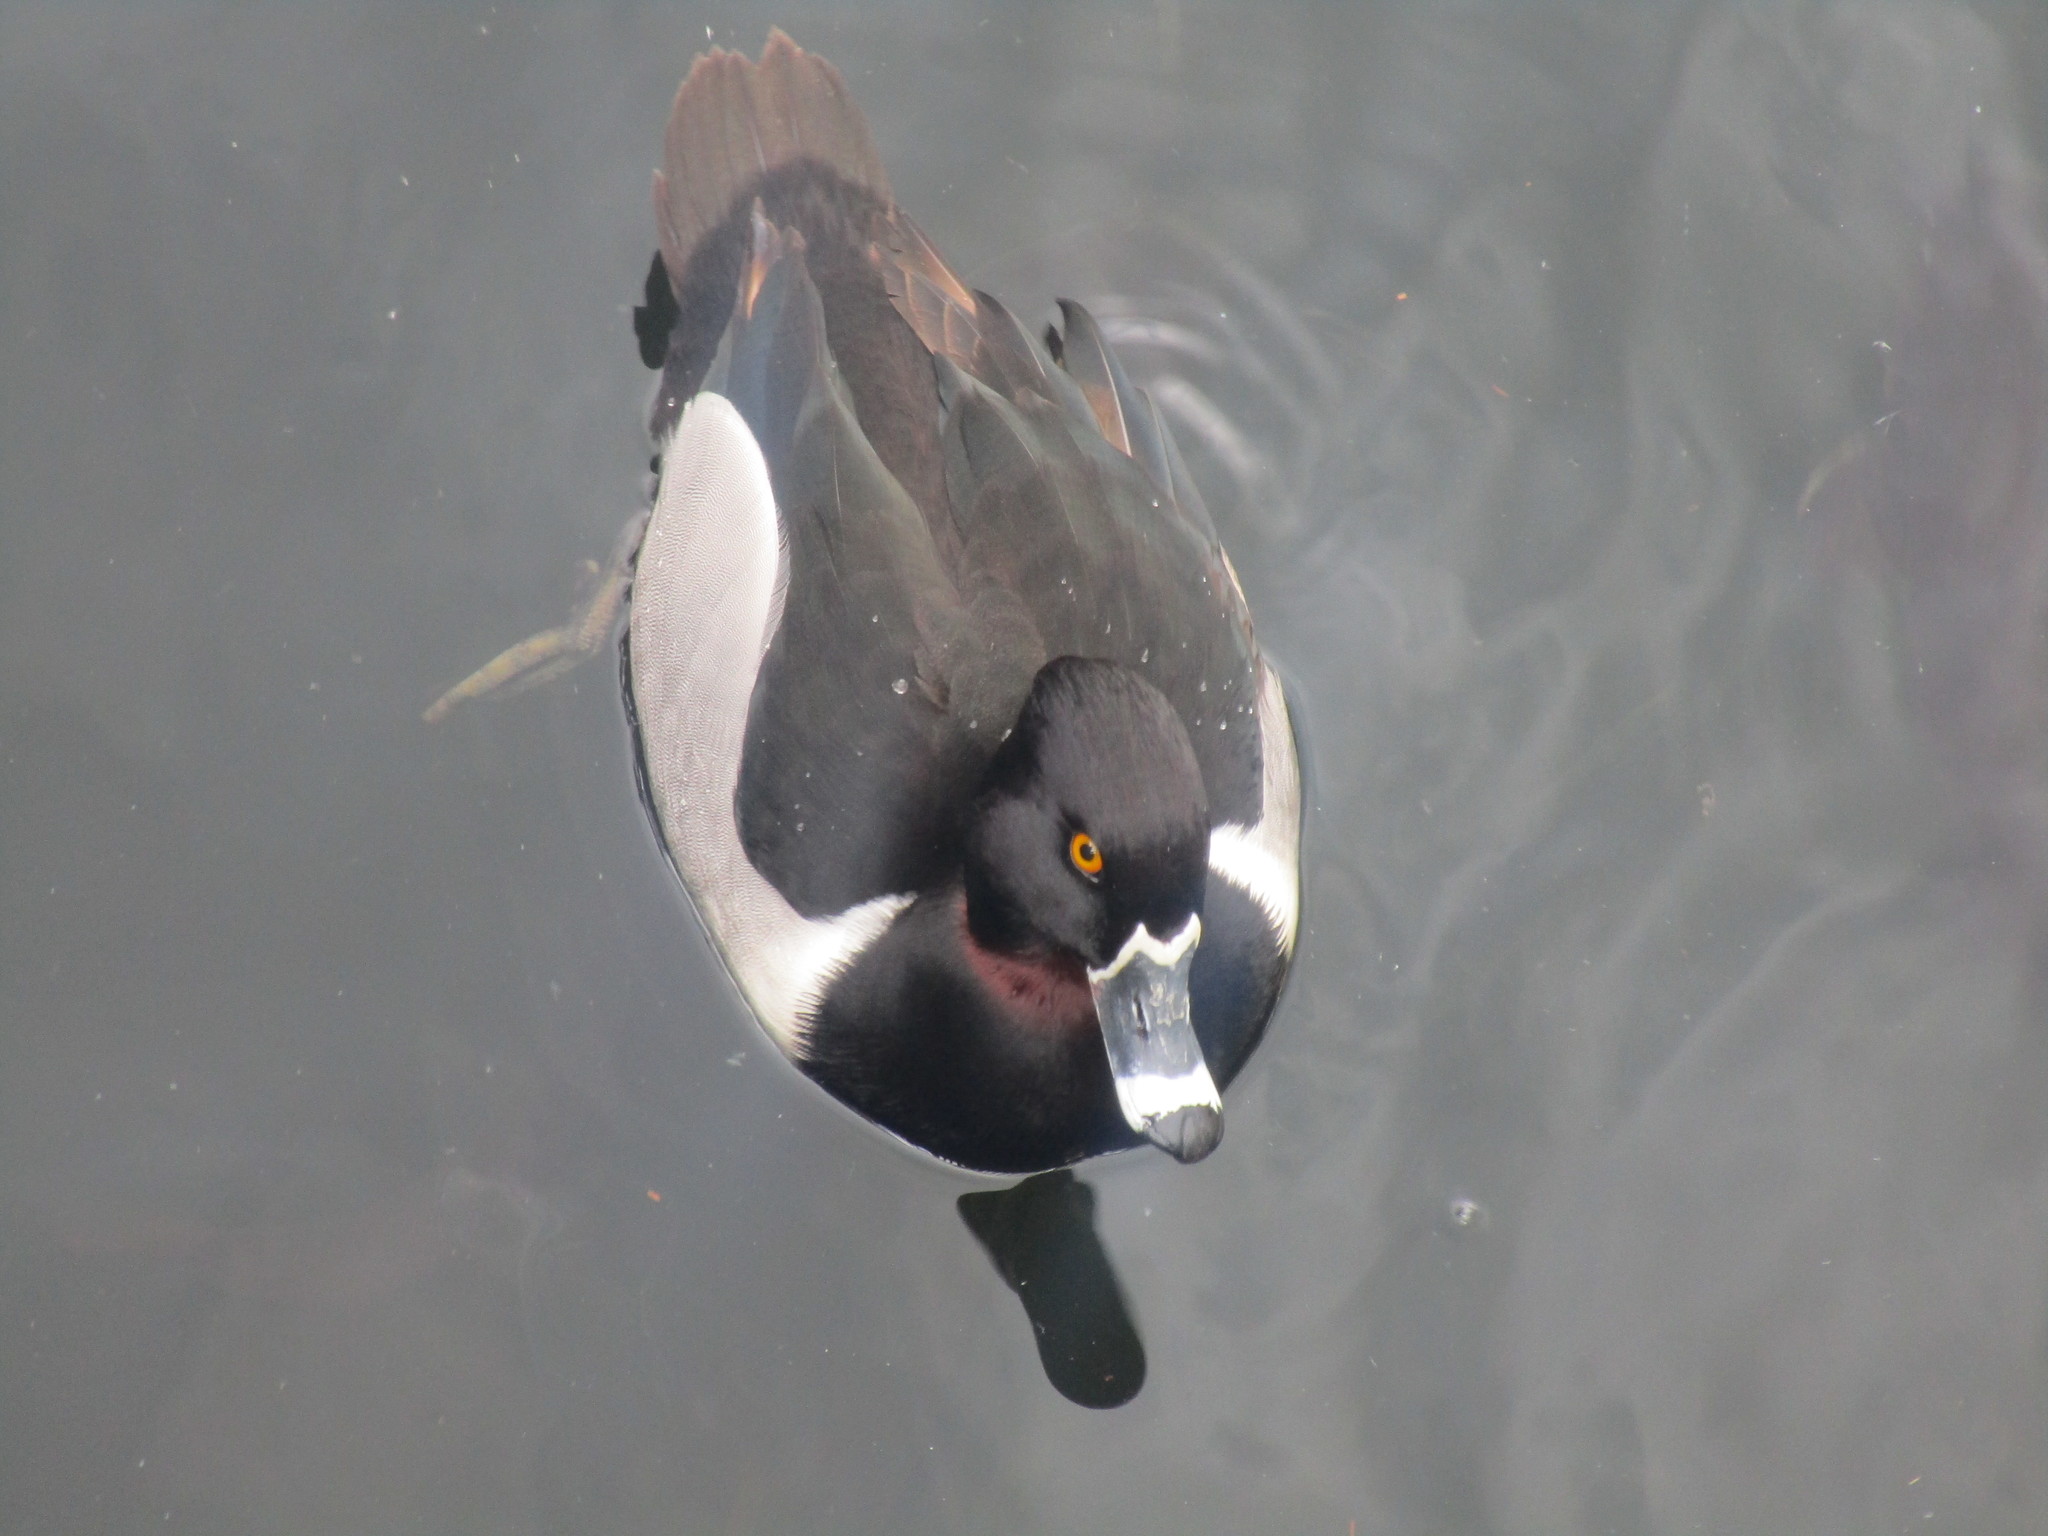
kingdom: Animalia
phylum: Chordata
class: Aves
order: Anseriformes
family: Anatidae
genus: Aythya
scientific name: Aythya collaris
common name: Ring-necked duck
